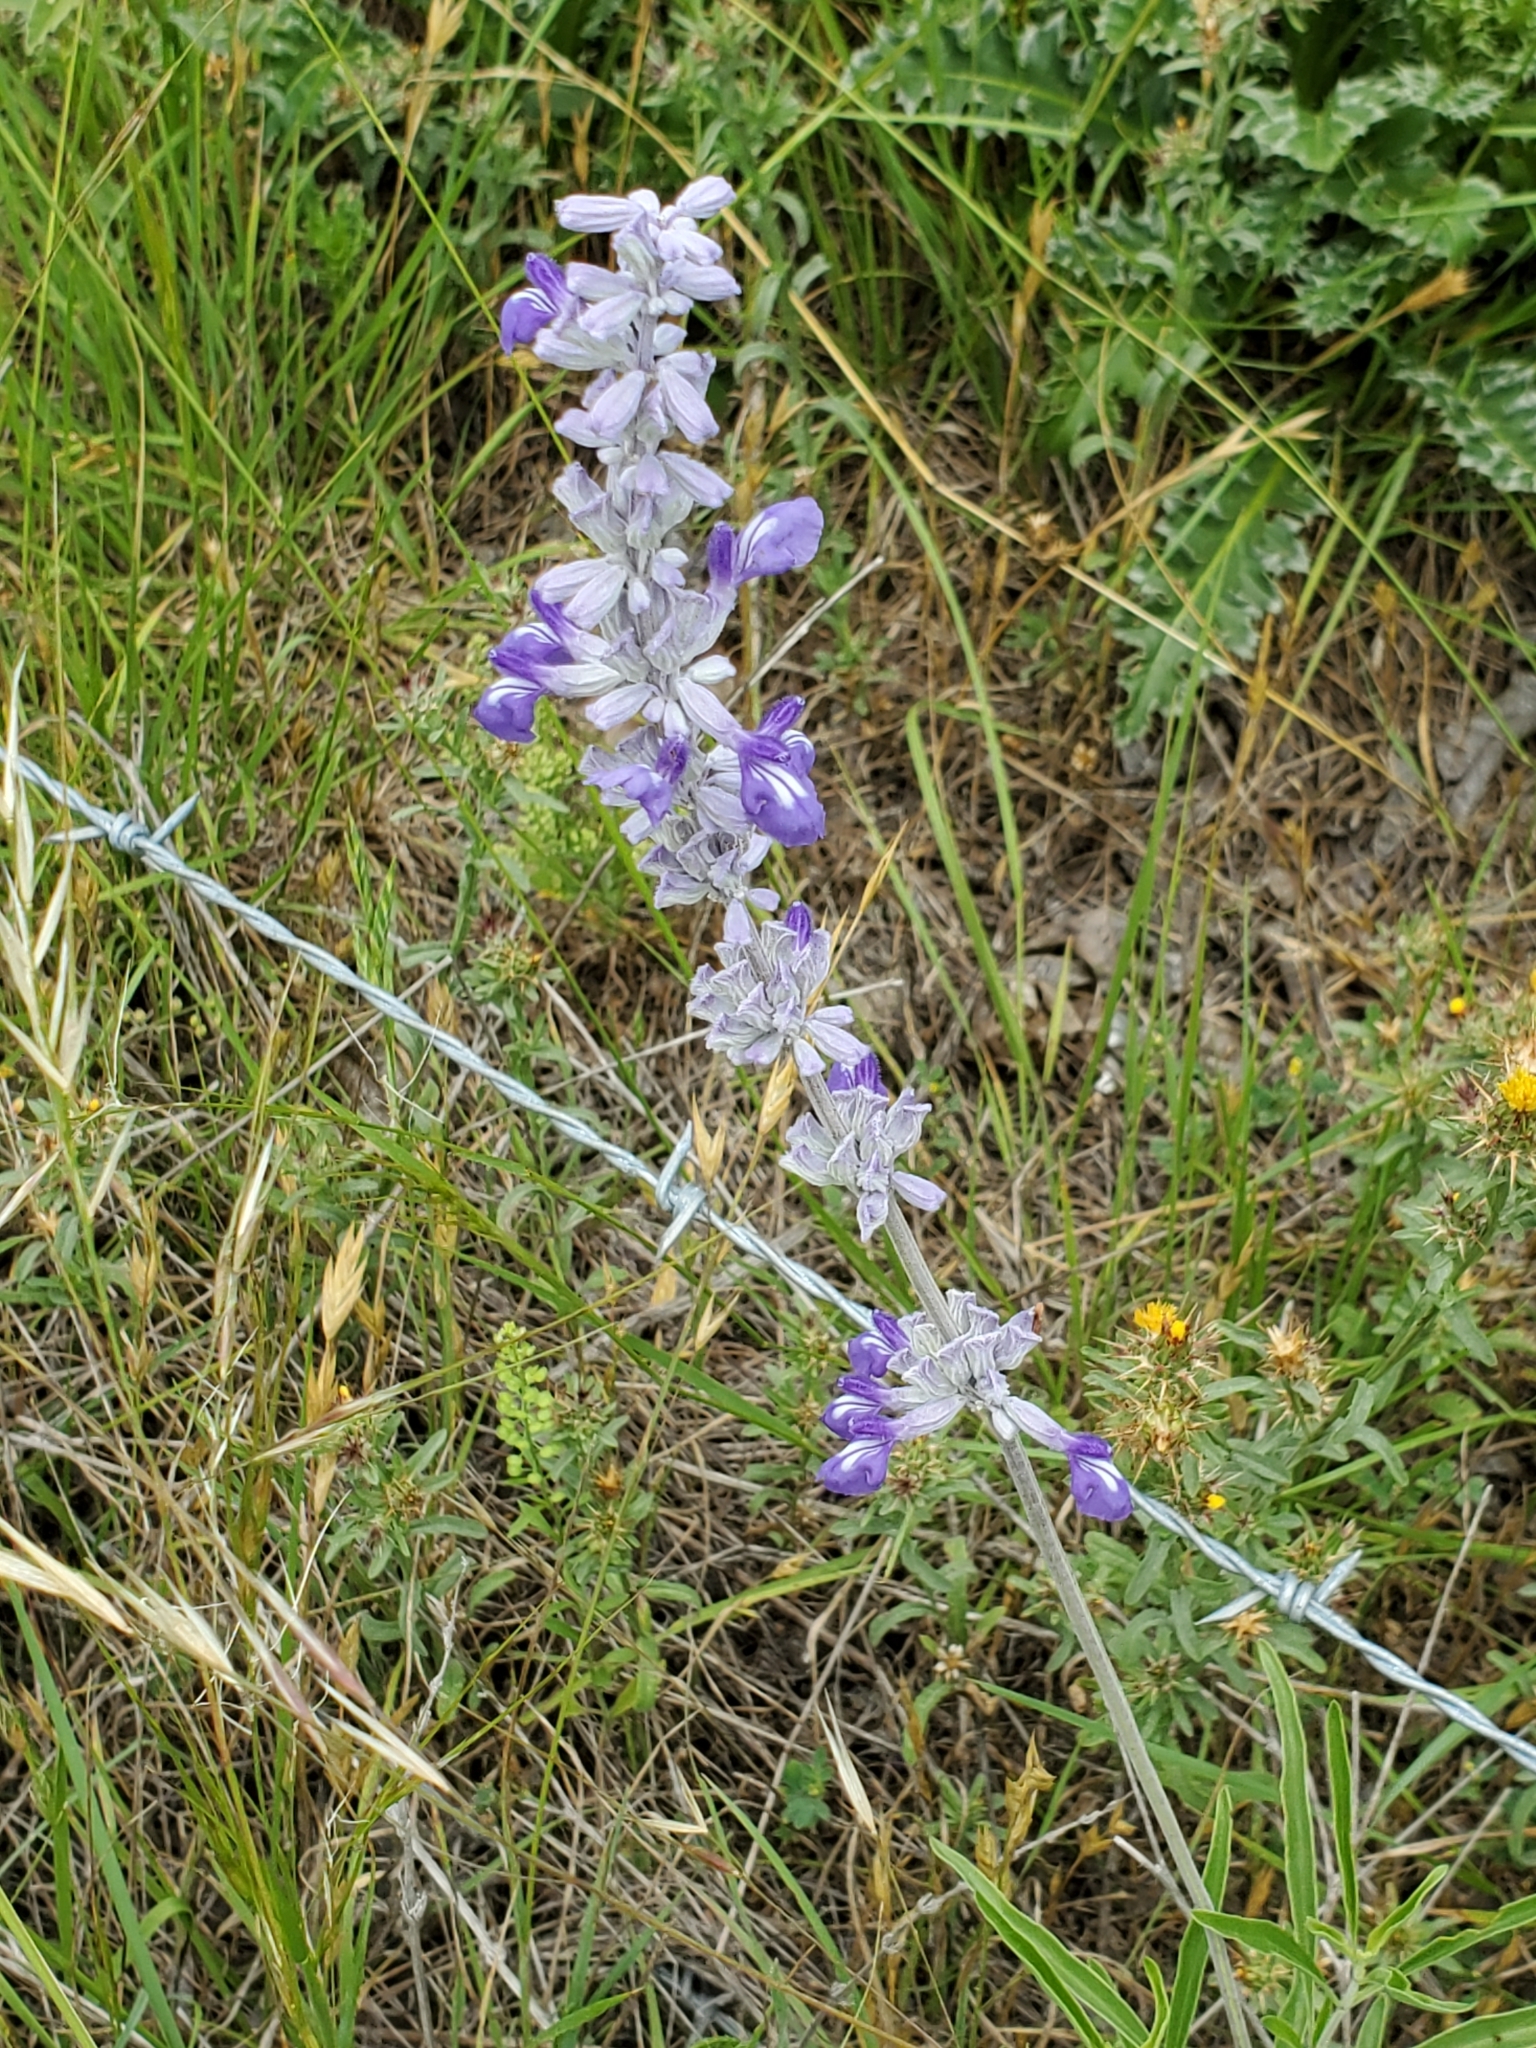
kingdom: Plantae
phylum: Tracheophyta
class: Magnoliopsida
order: Lamiales
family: Lamiaceae
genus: Salvia
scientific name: Salvia farinacea
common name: Mealy sage
